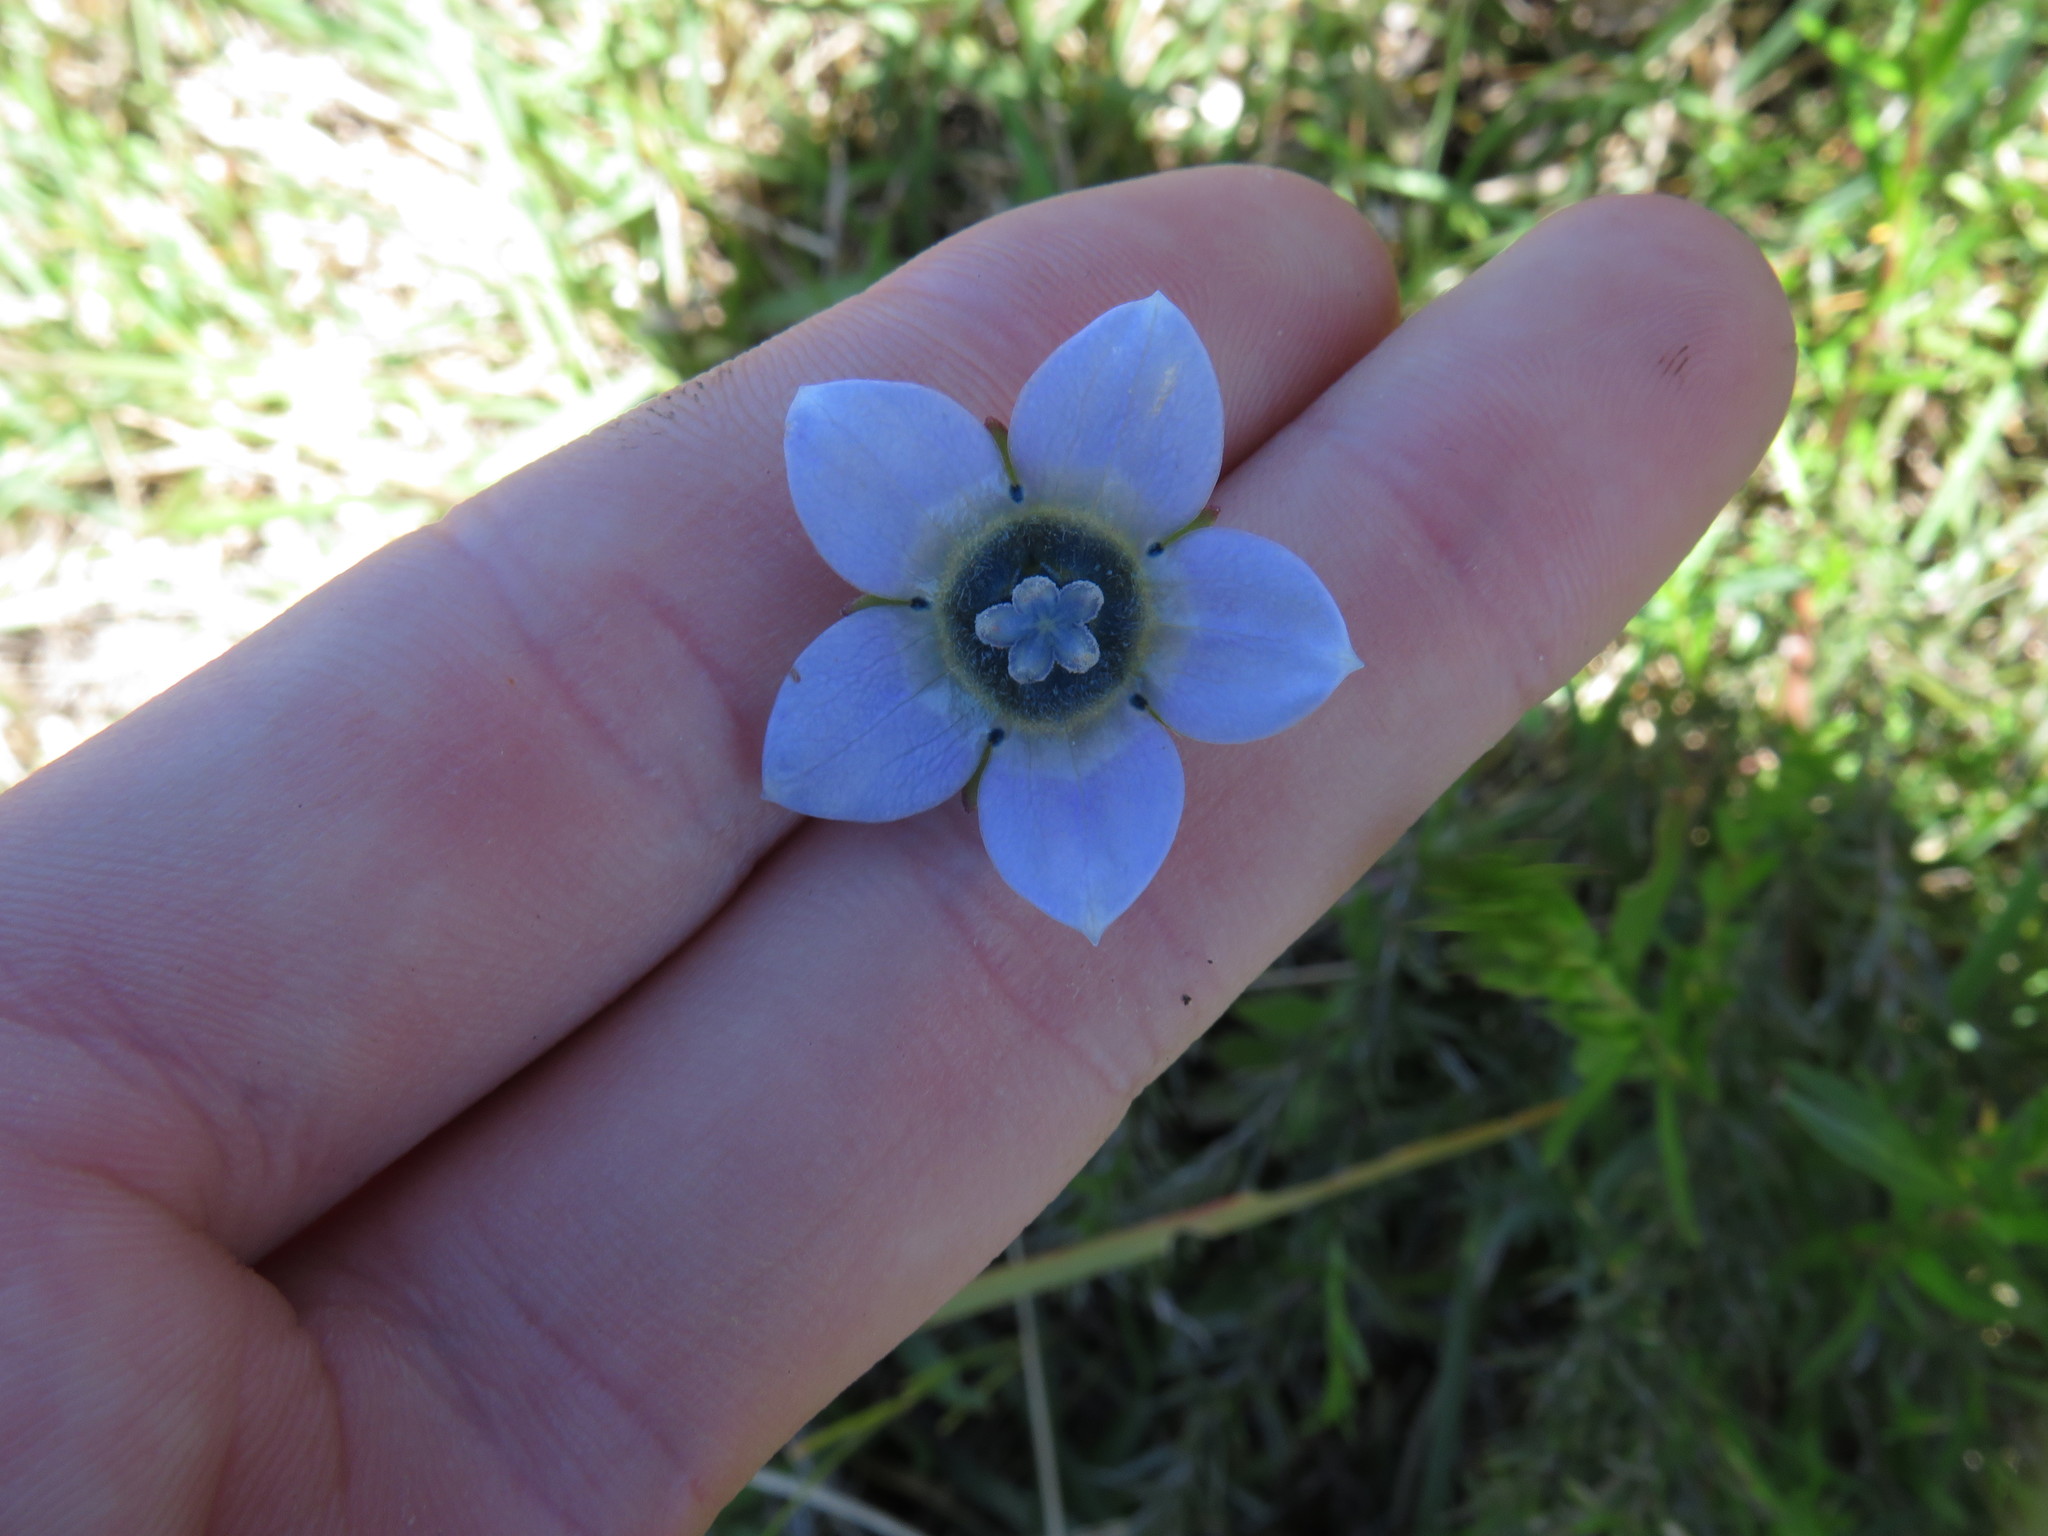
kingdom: Plantae
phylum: Tracheophyta
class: Magnoliopsida
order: Asterales
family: Campanulaceae
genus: Wahlenbergia
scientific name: Wahlenbergia capensis
